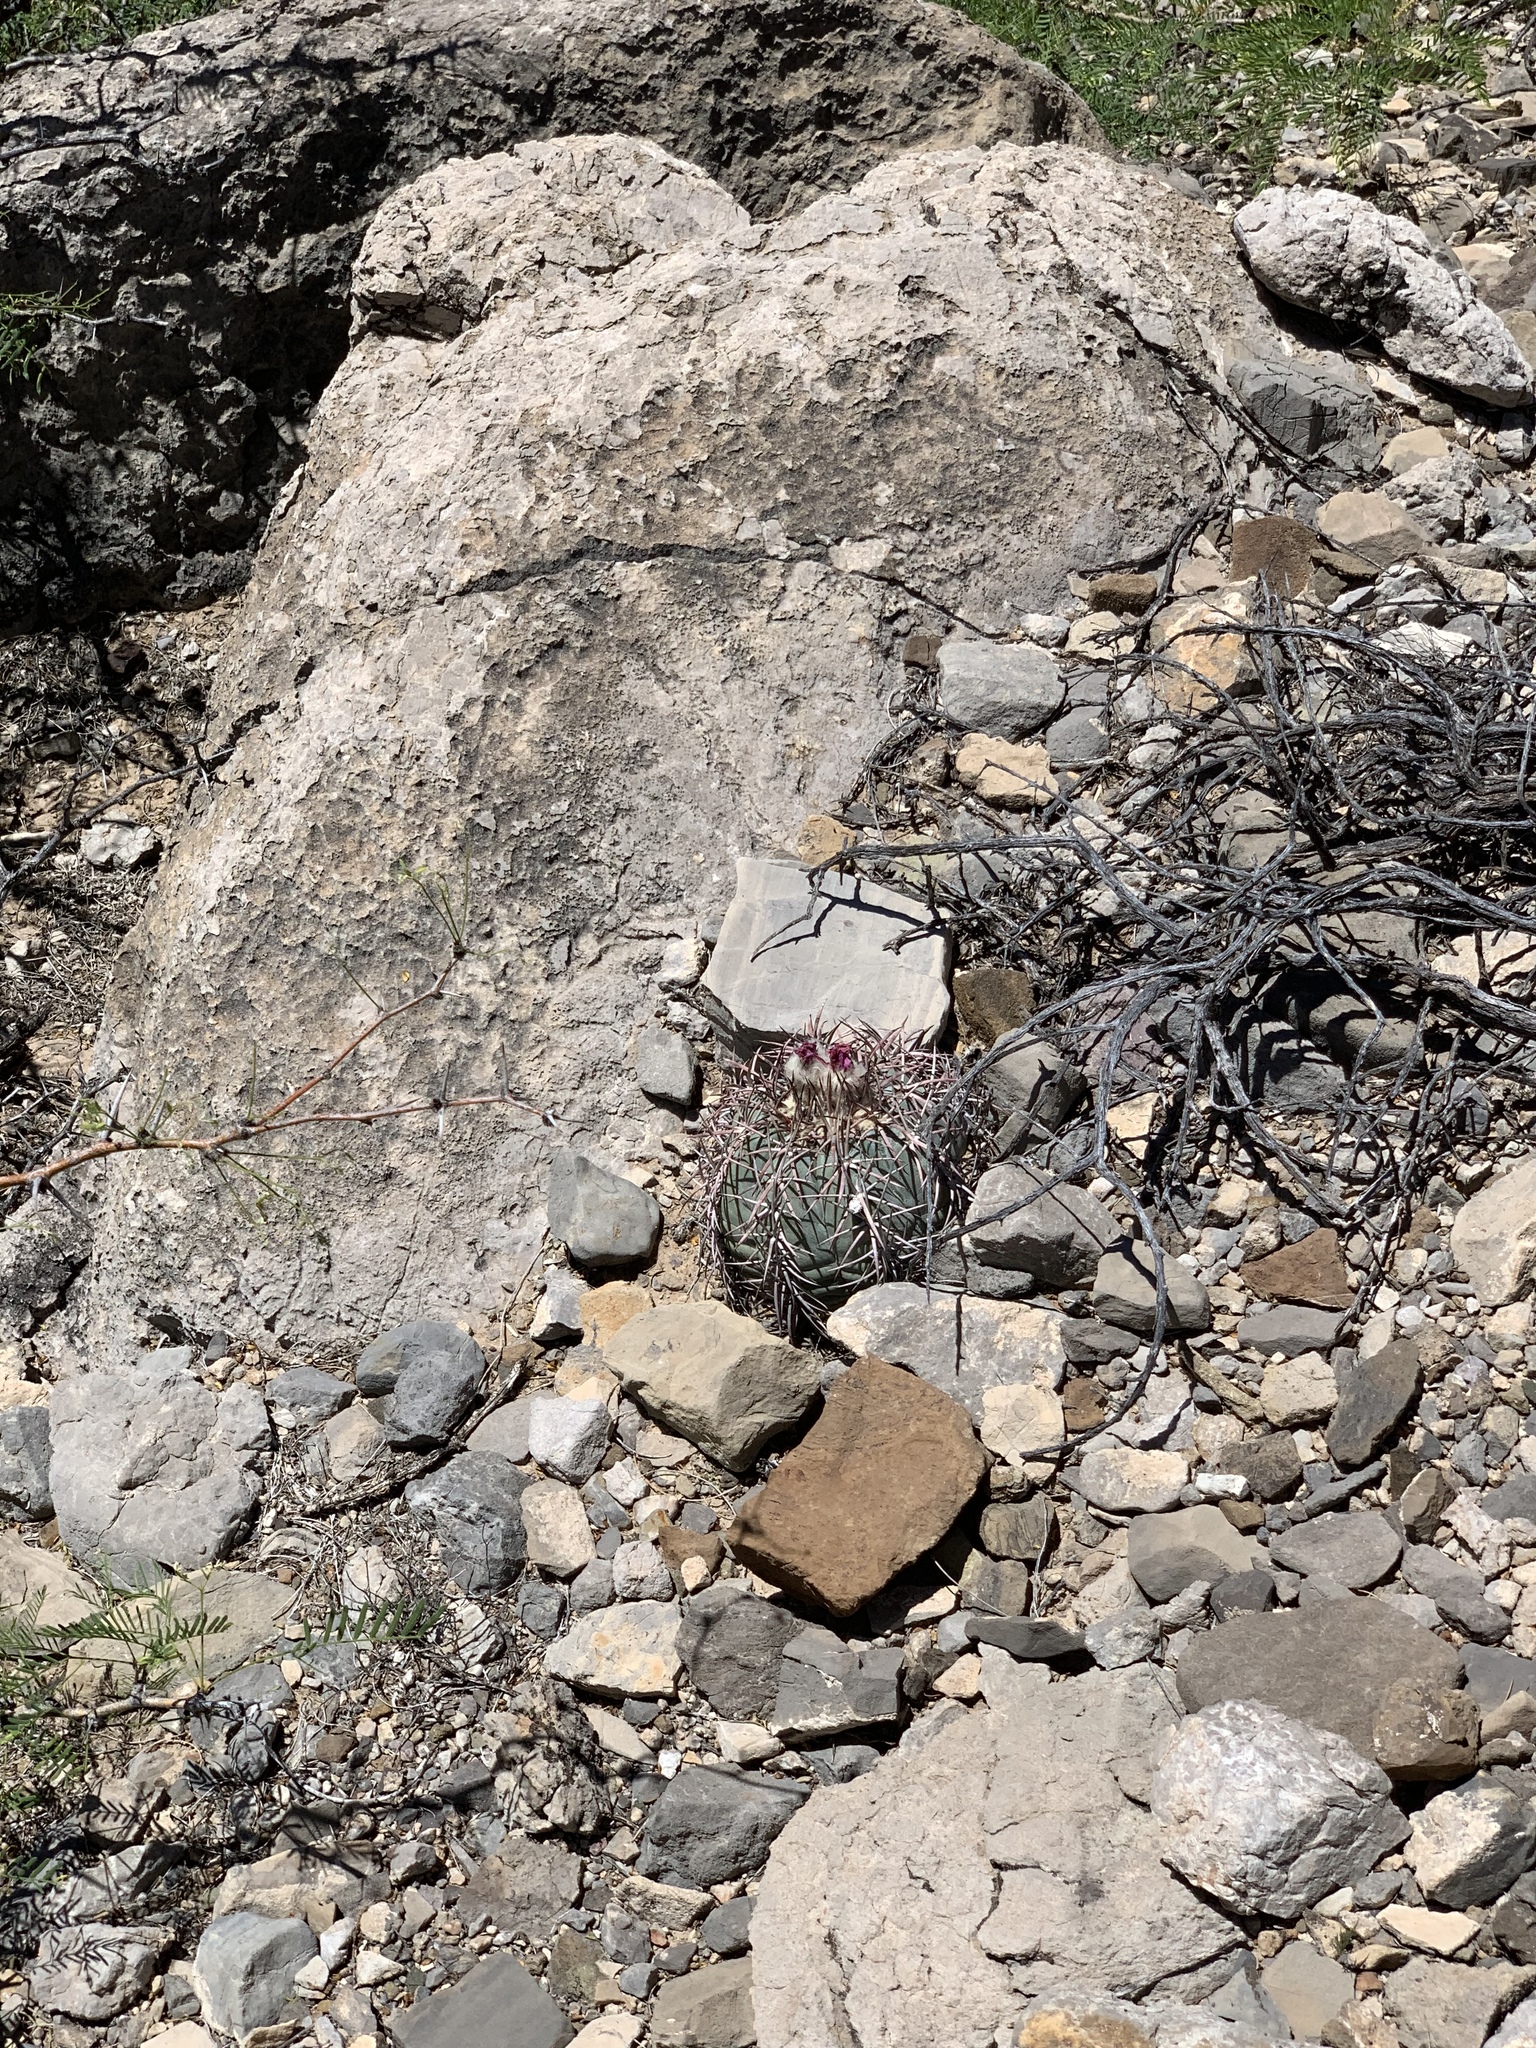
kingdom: Plantae
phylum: Tracheophyta
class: Magnoliopsida
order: Caryophyllales
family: Cactaceae
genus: Echinocactus
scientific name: Echinocactus horizonthalonius
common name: Devilshead
